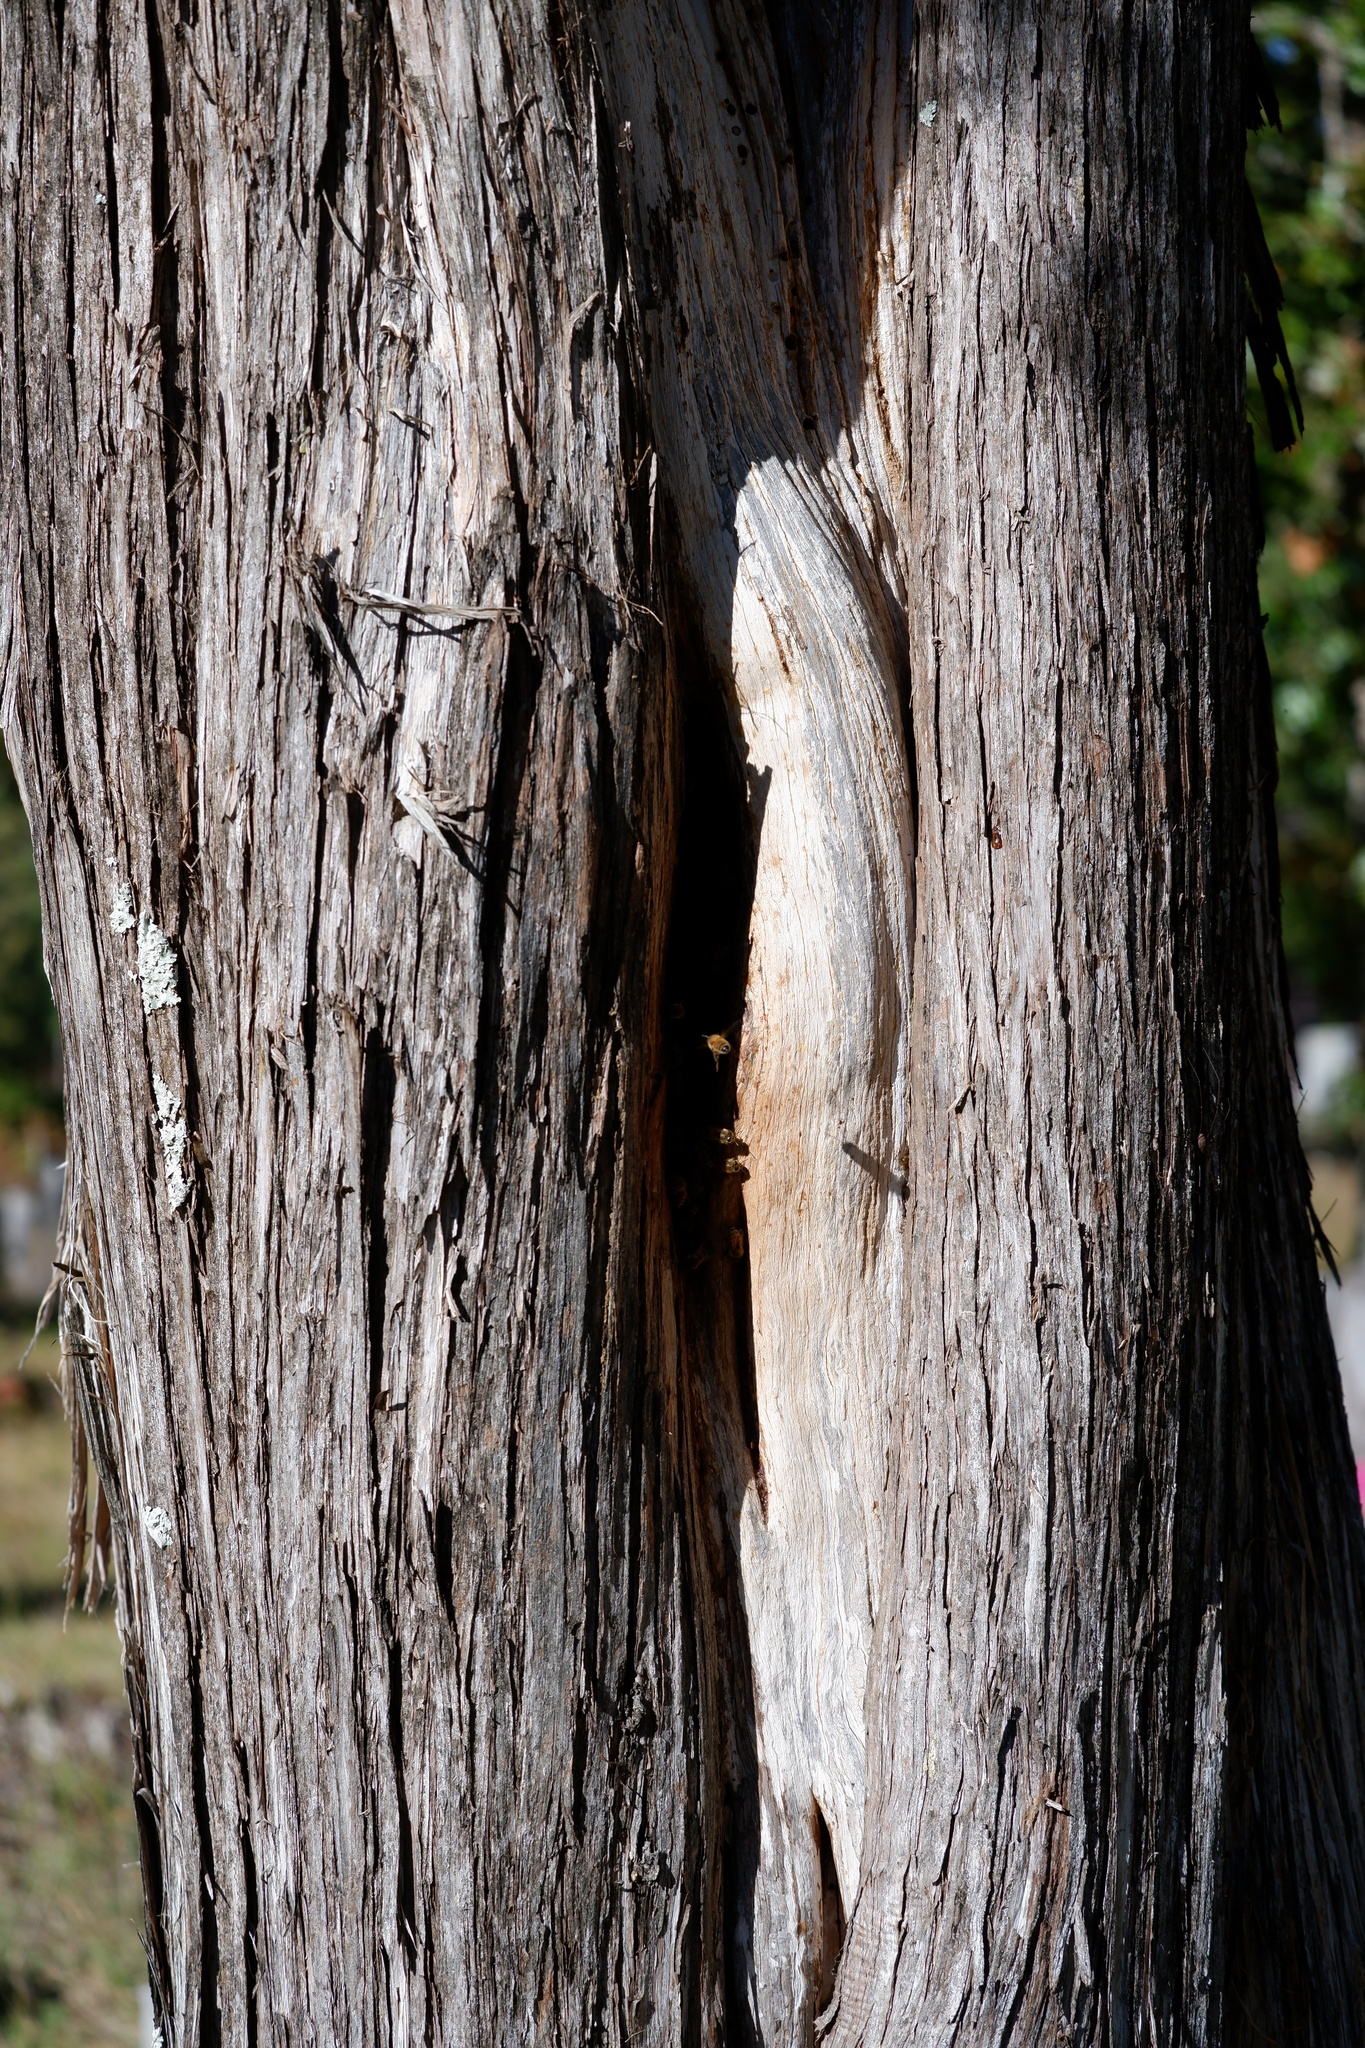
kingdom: Animalia
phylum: Arthropoda
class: Insecta
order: Hymenoptera
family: Apidae
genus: Apis
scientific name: Apis mellifera
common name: Honey bee
